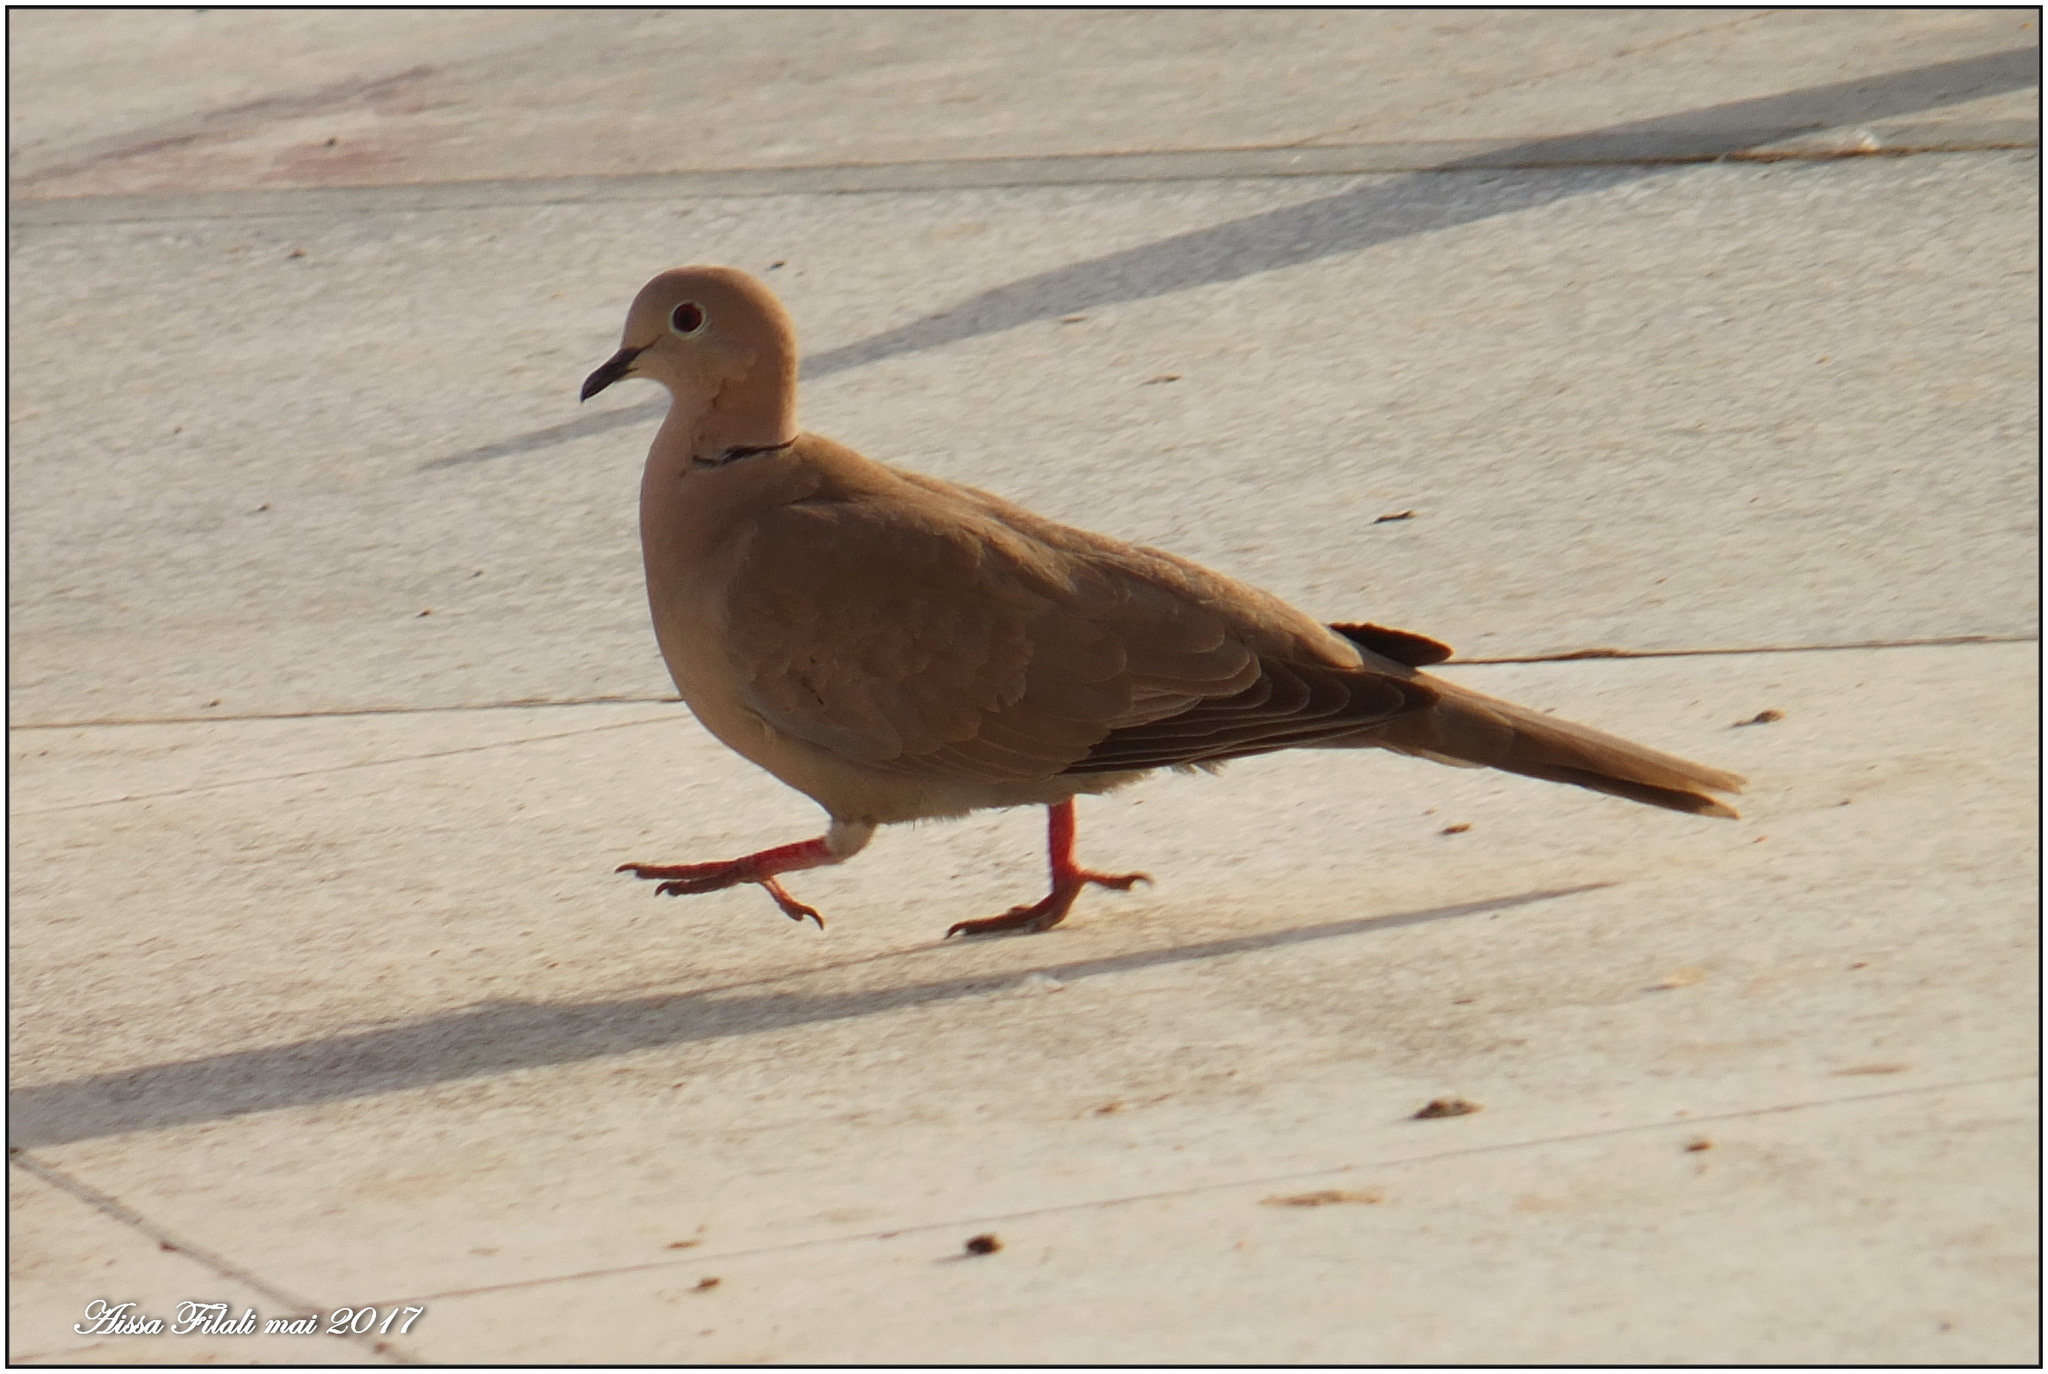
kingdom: Animalia
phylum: Chordata
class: Aves
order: Columbiformes
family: Columbidae
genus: Streptopelia
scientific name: Streptopelia decaocto
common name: Eurasian collared dove
